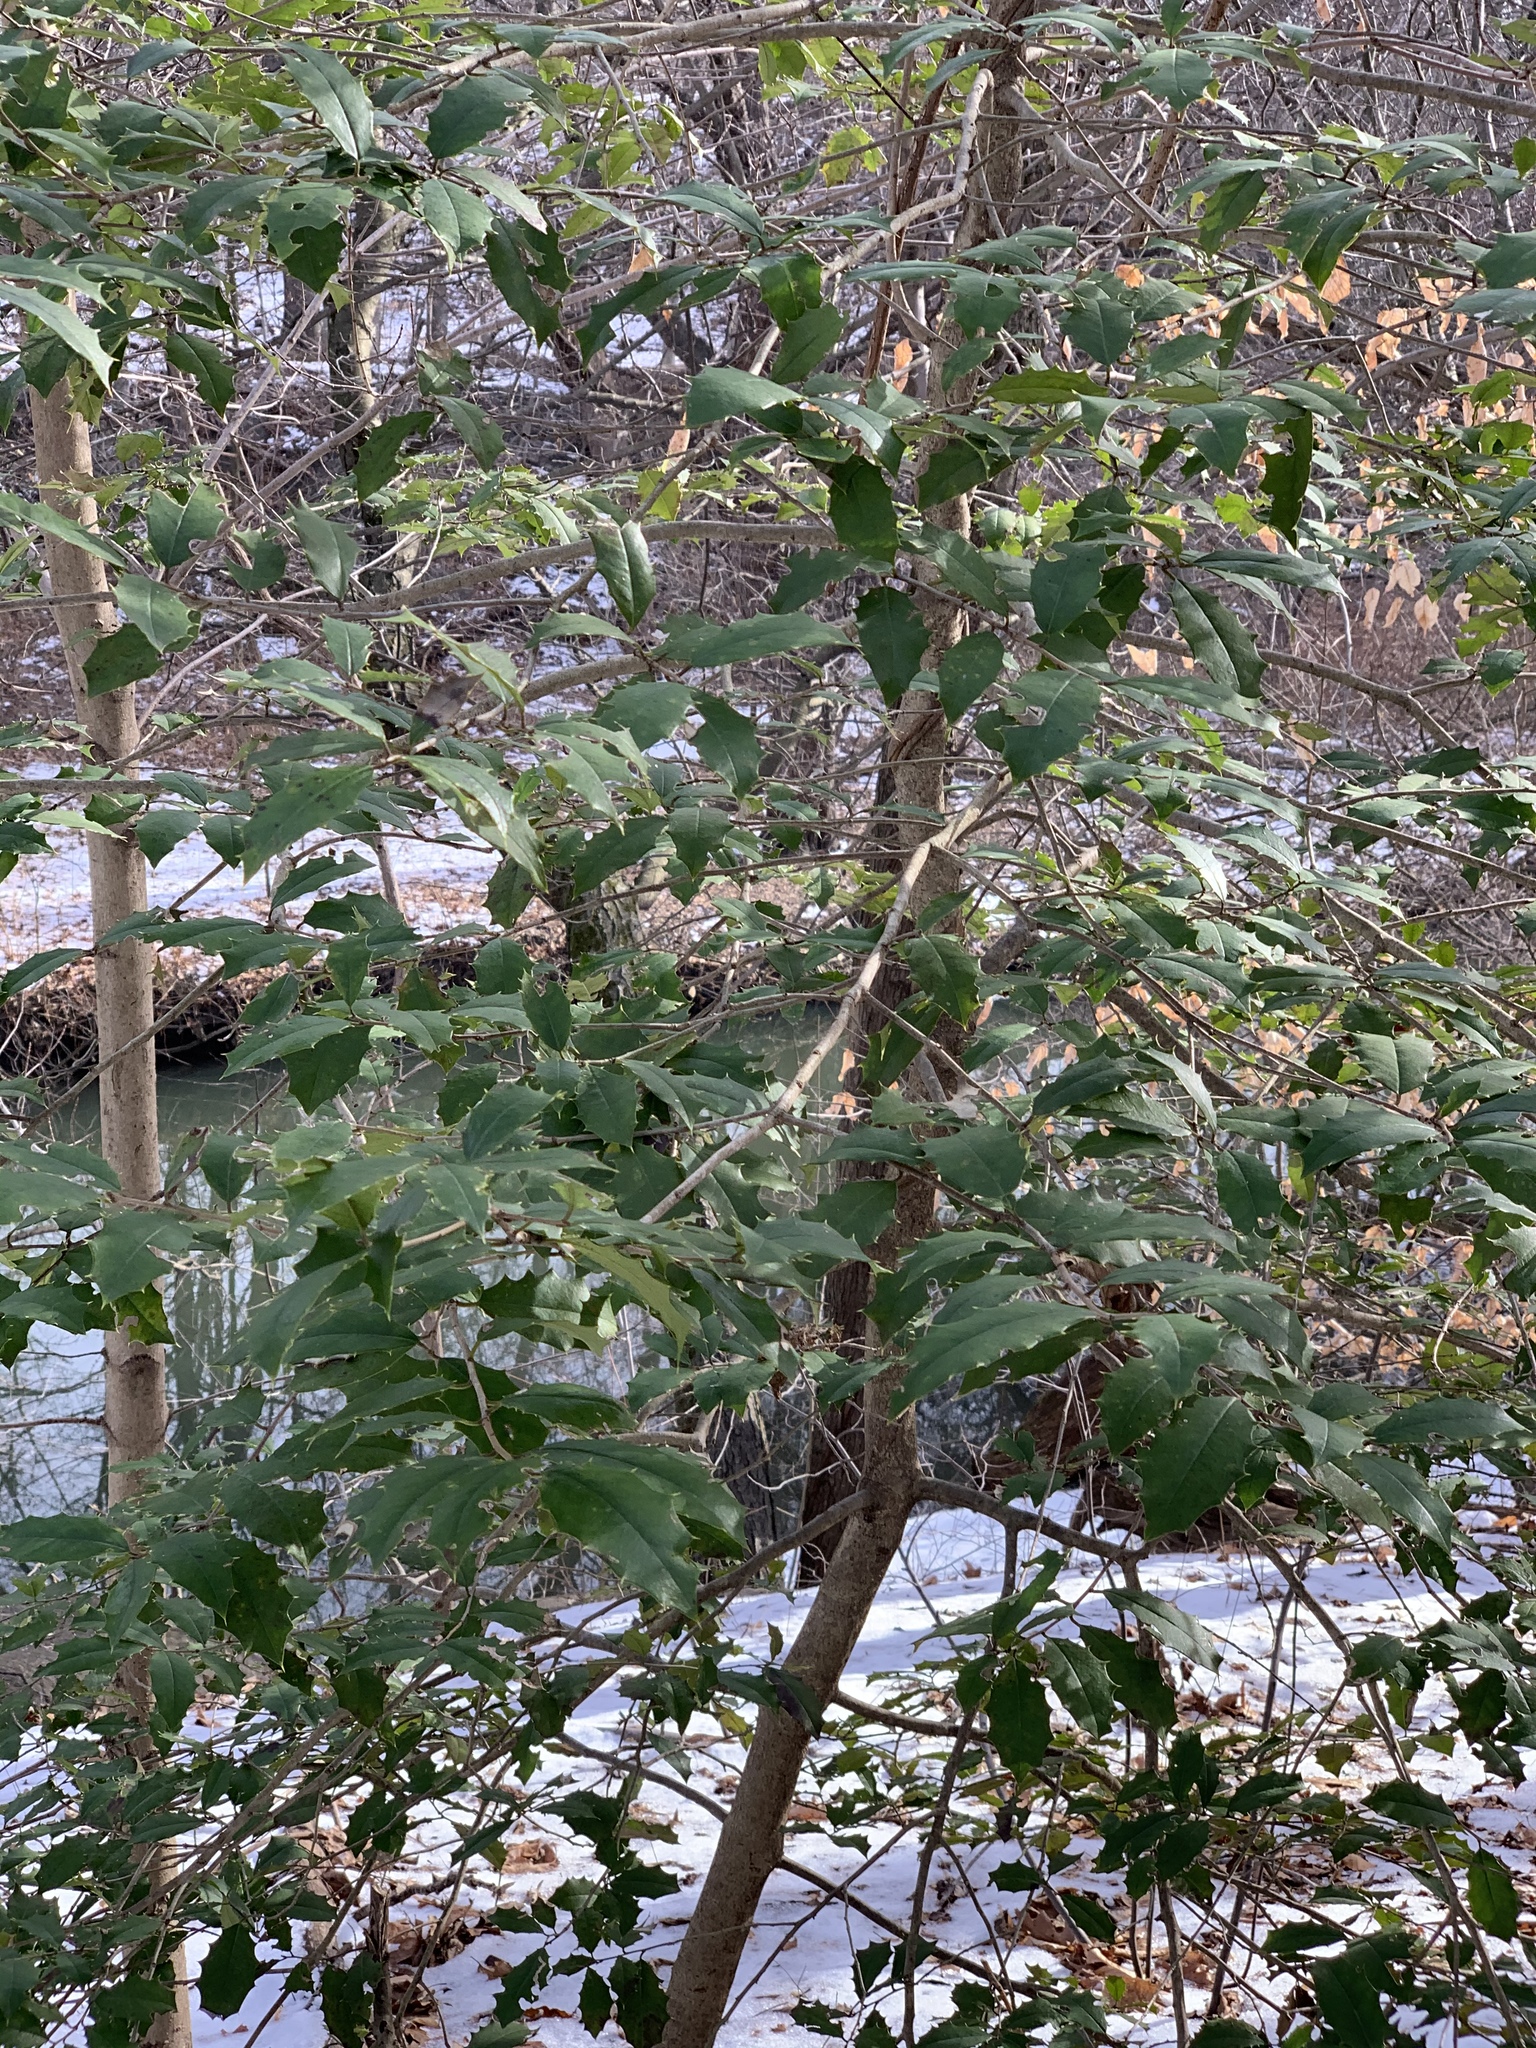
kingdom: Plantae
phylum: Tracheophyta
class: Magnoliopsida
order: Aquifoliales
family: Aquifoliaceae
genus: Ilex
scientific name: Ilex opaca
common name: American holly
